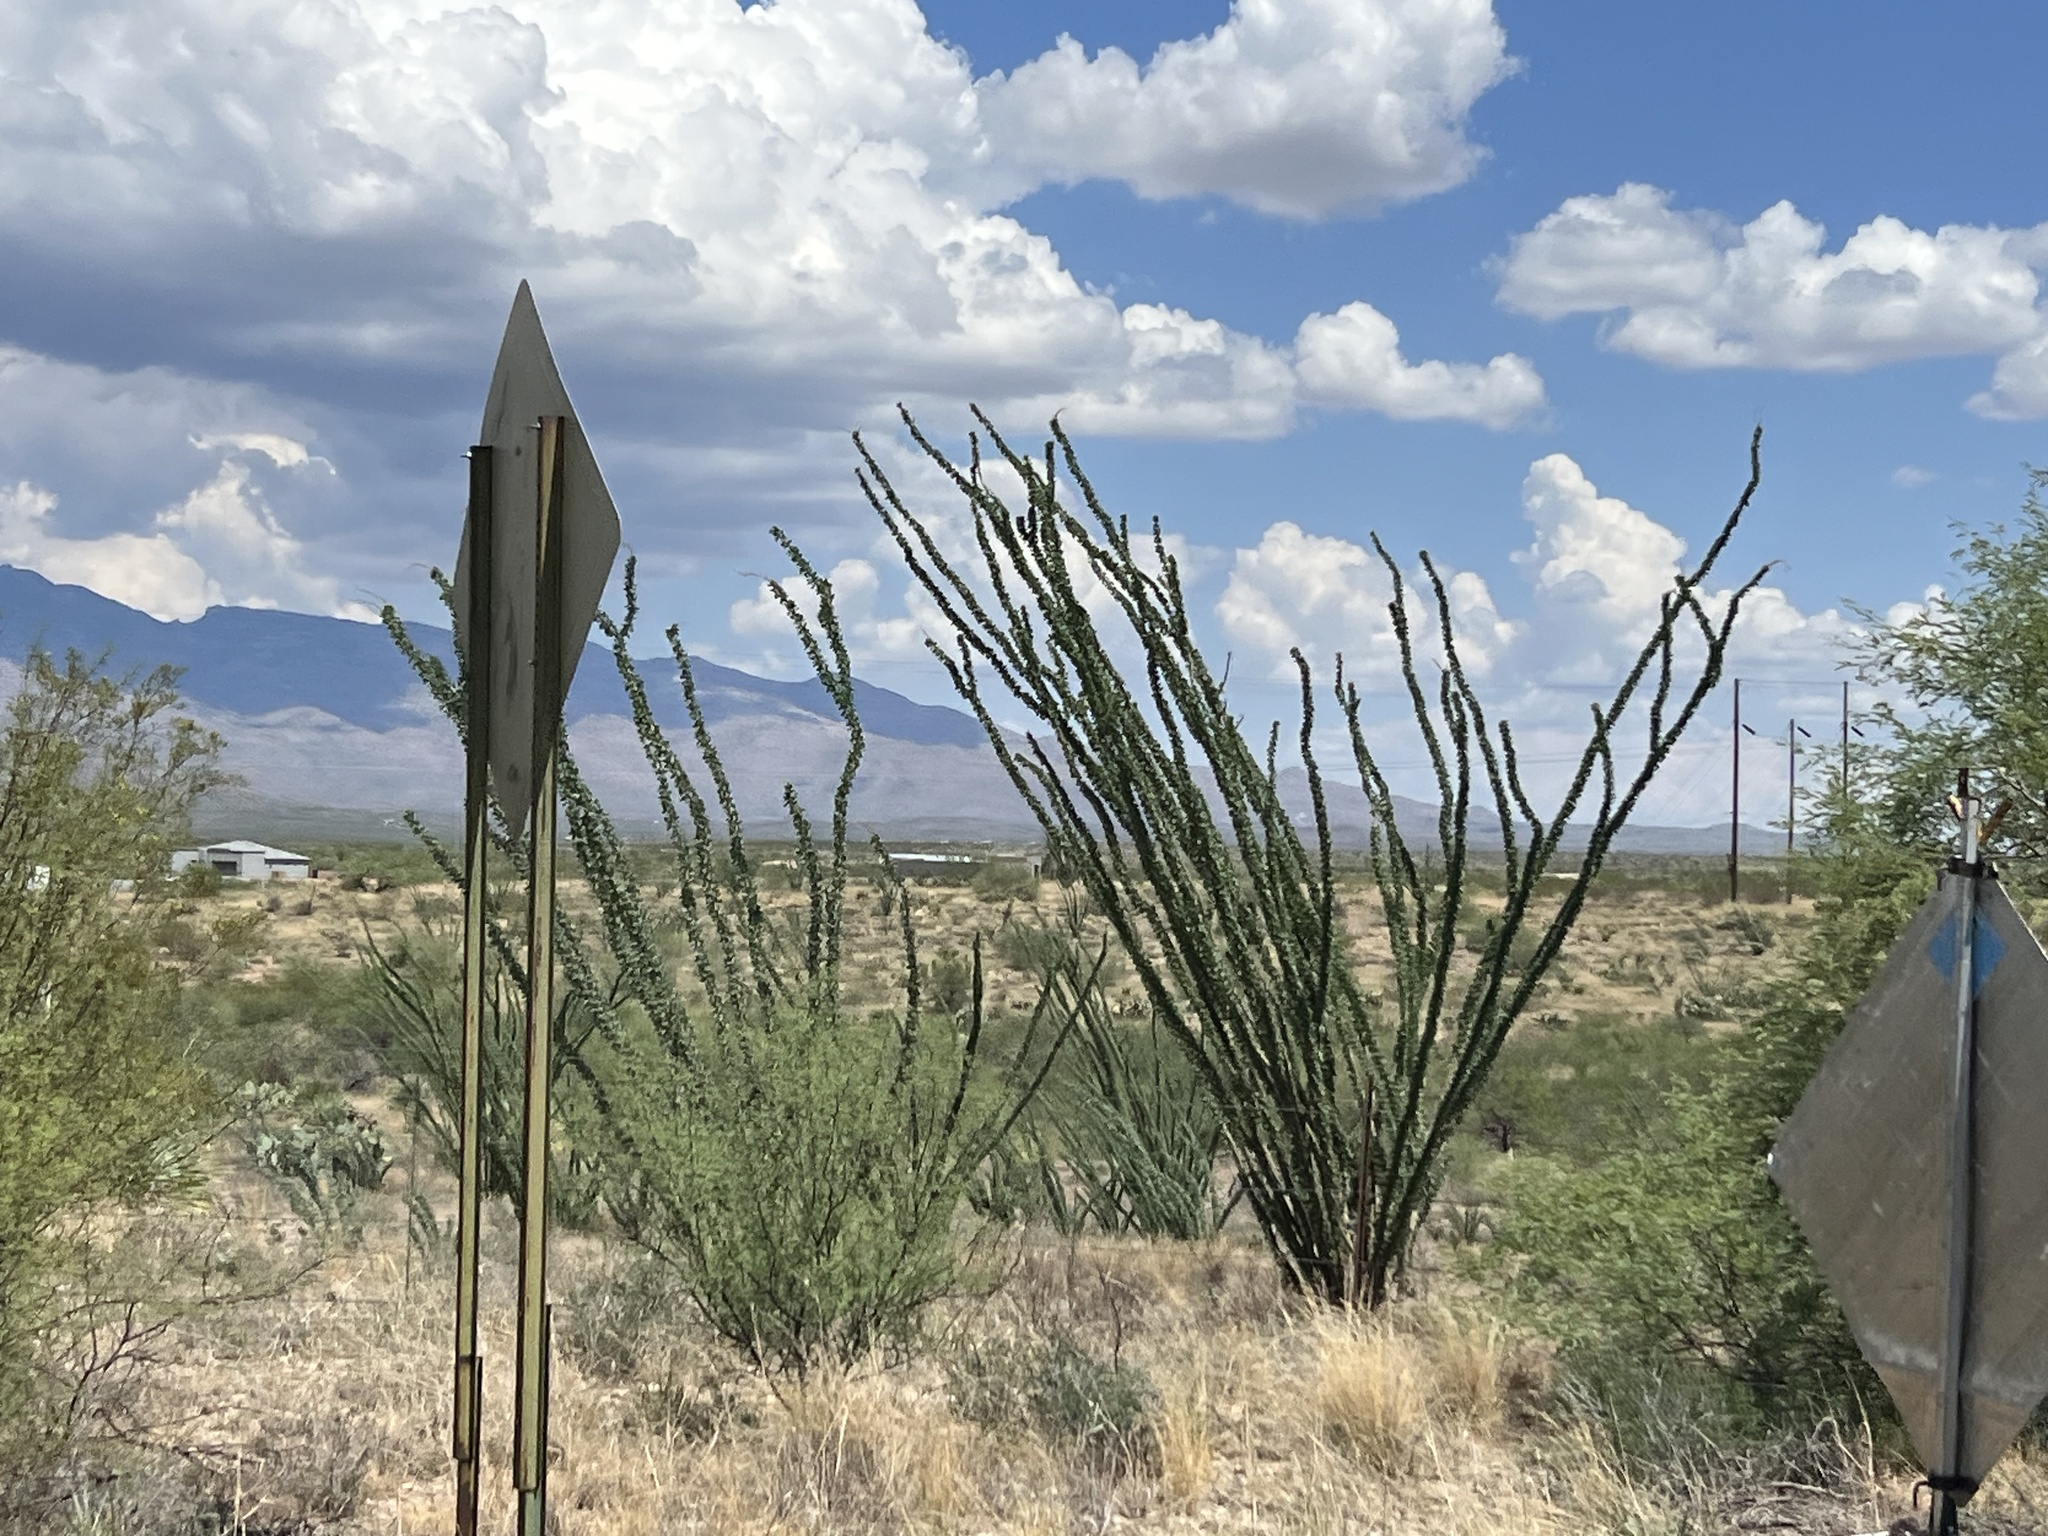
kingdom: Plantae
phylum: Tracheophyta
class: Magnoliopsida
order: Ericales
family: Fouquieriaceae
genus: Fouquieria
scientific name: Fouquieria splendens
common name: Vine-cactus
